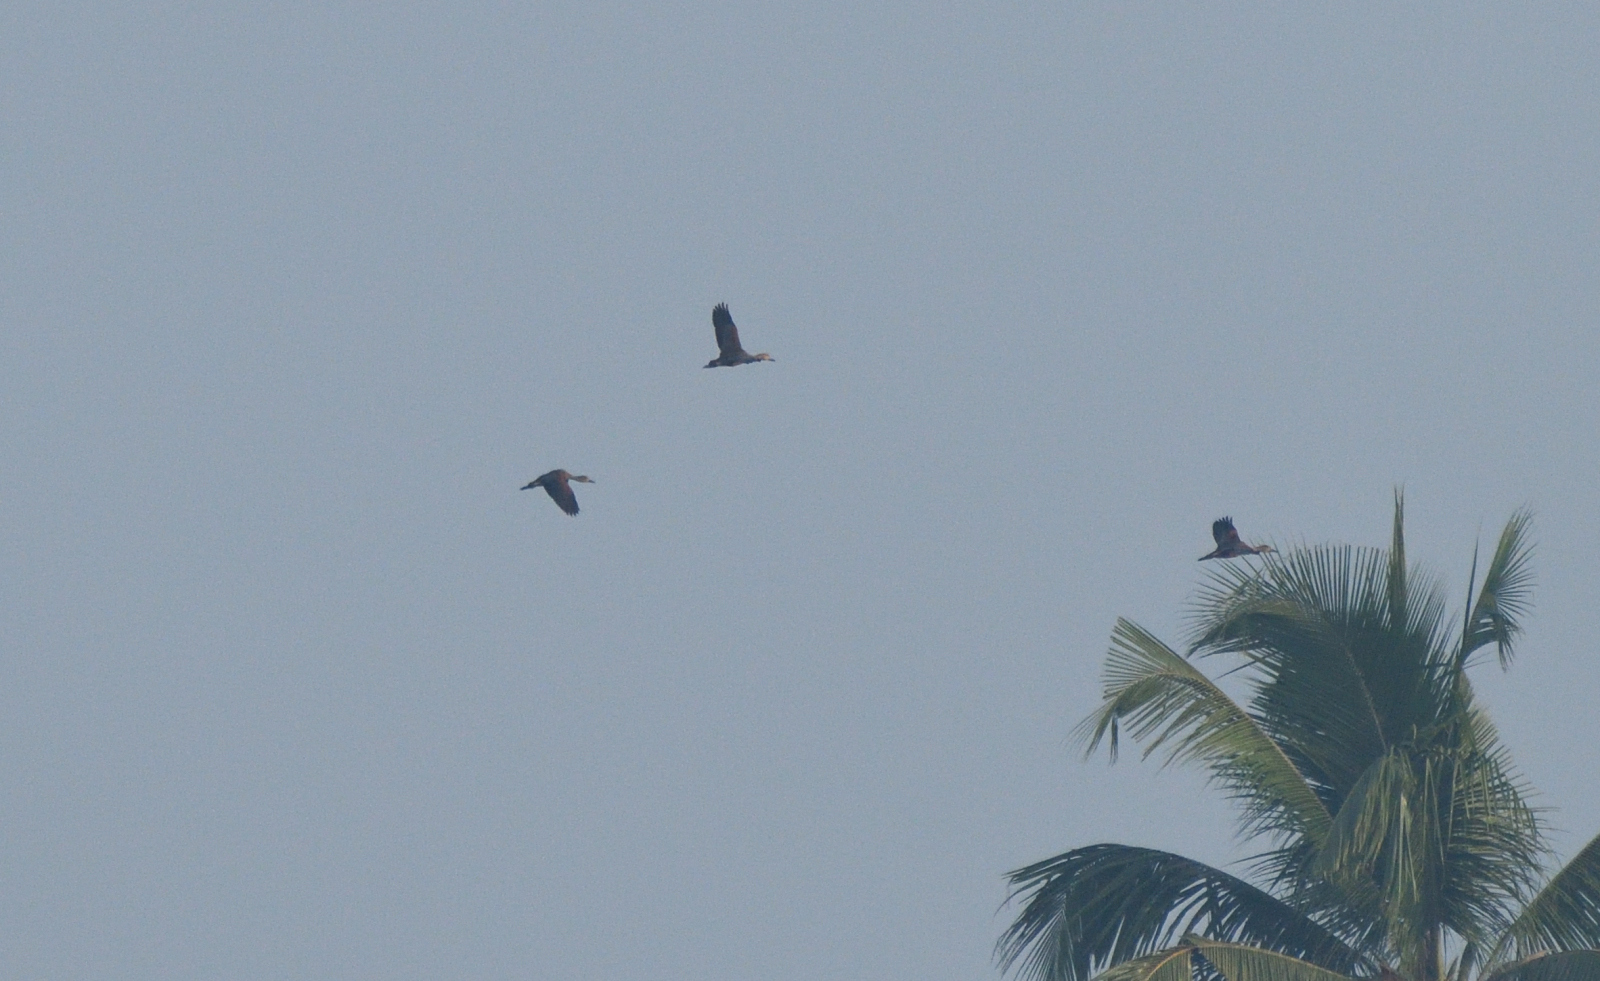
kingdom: Animalia
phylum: Chordata
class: Aves
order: Anseriformes
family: Anatidae
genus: Dendrocygna
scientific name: Dendrocygna javanica
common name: Lesser whistling-duck
